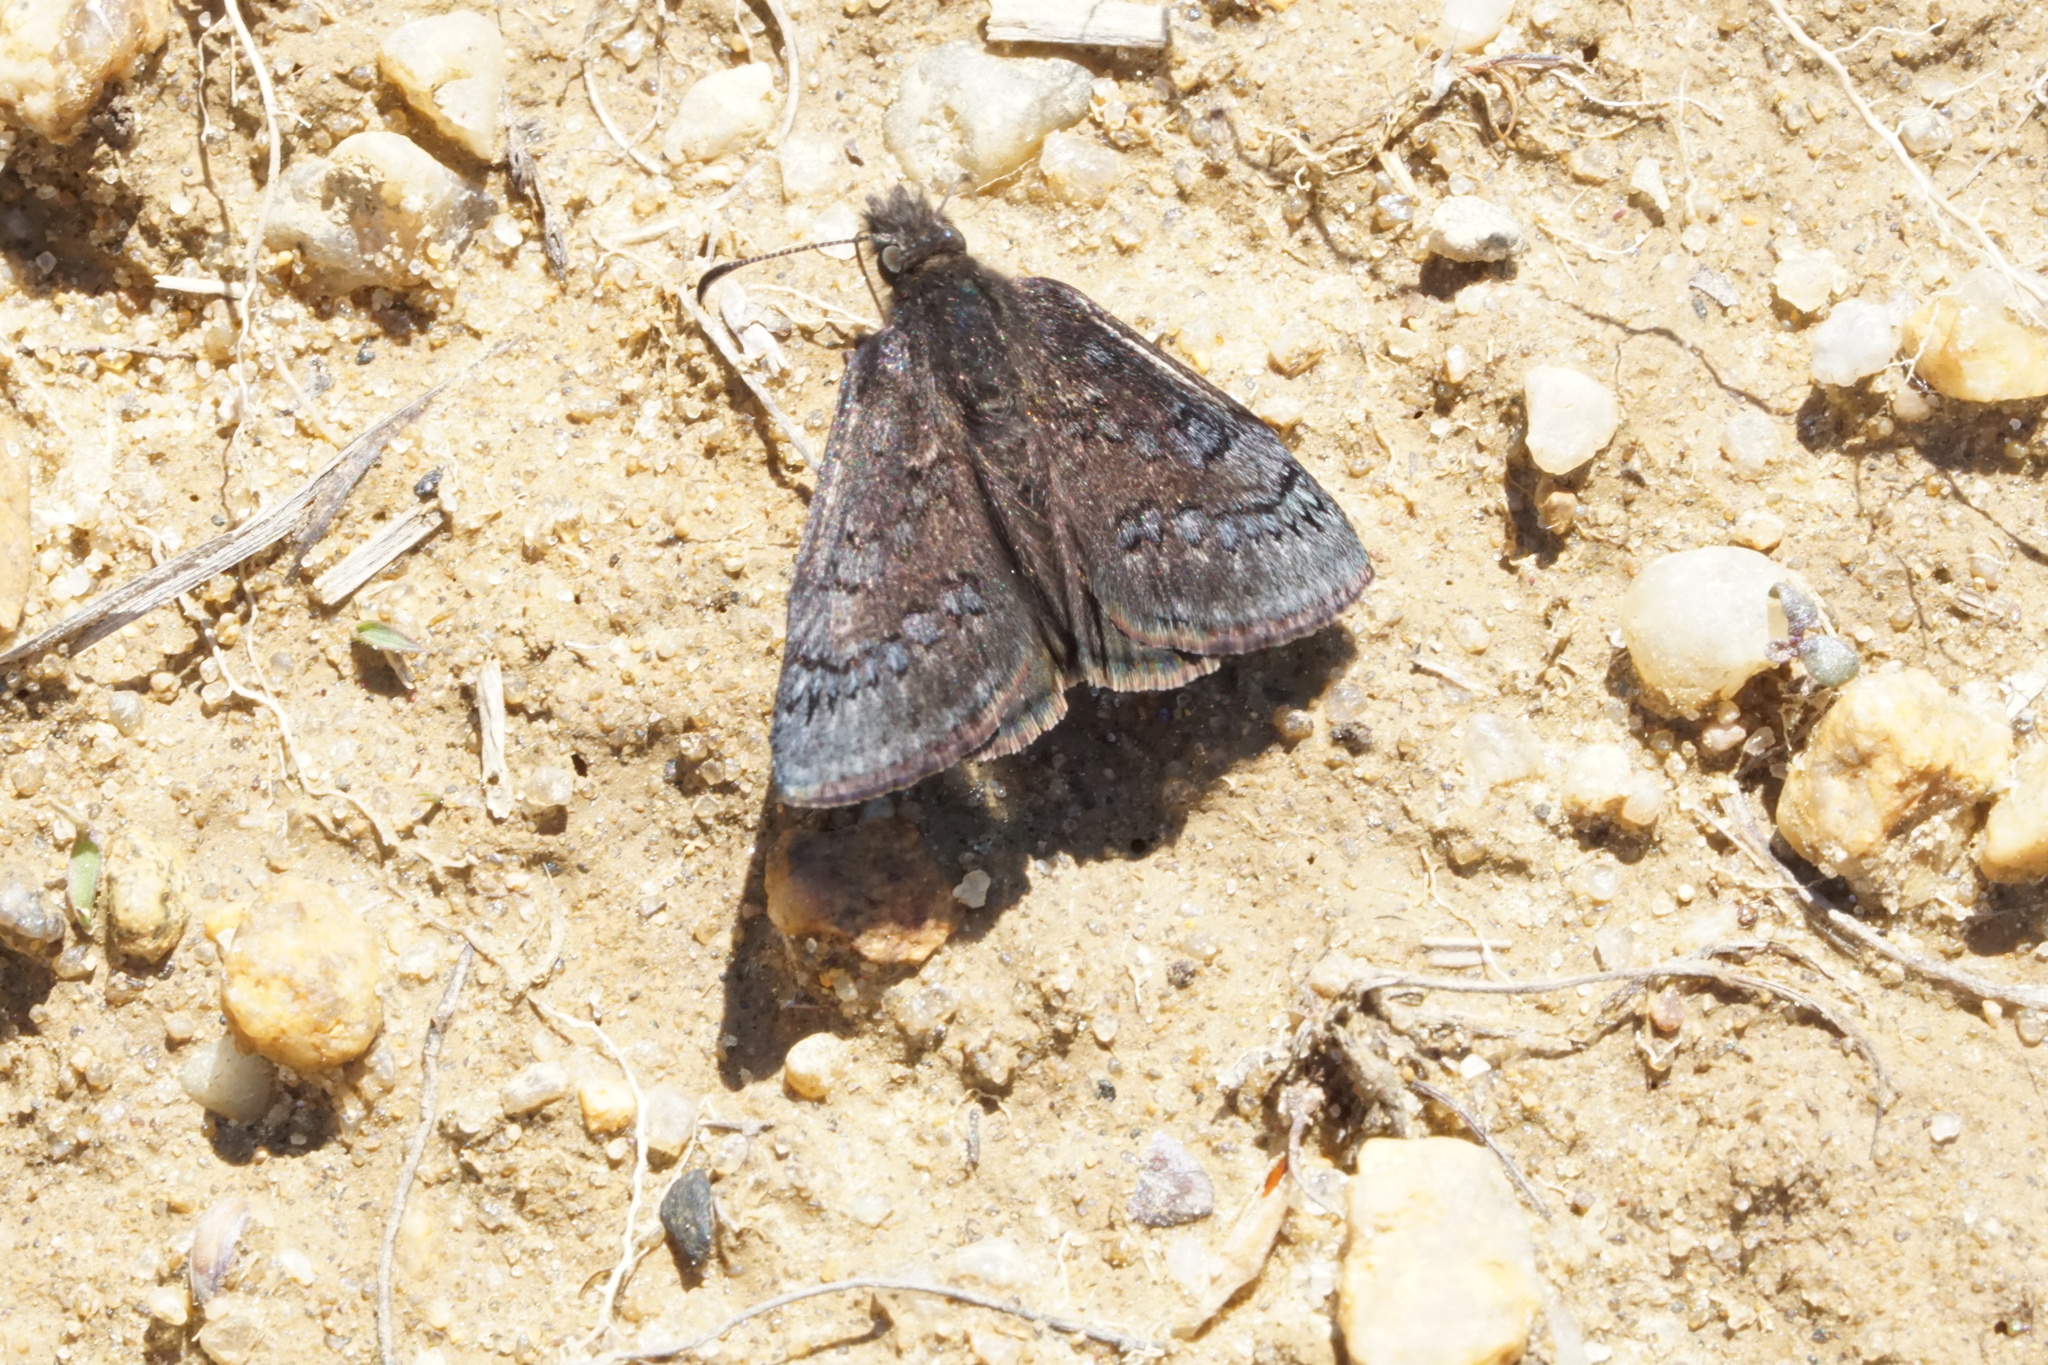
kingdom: Animalia
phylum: Arthropoda
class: Insecta
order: Lepidoptera
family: Hesperiidae
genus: Erynnis
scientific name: Erynnis brizo
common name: Sleepy duskywing
